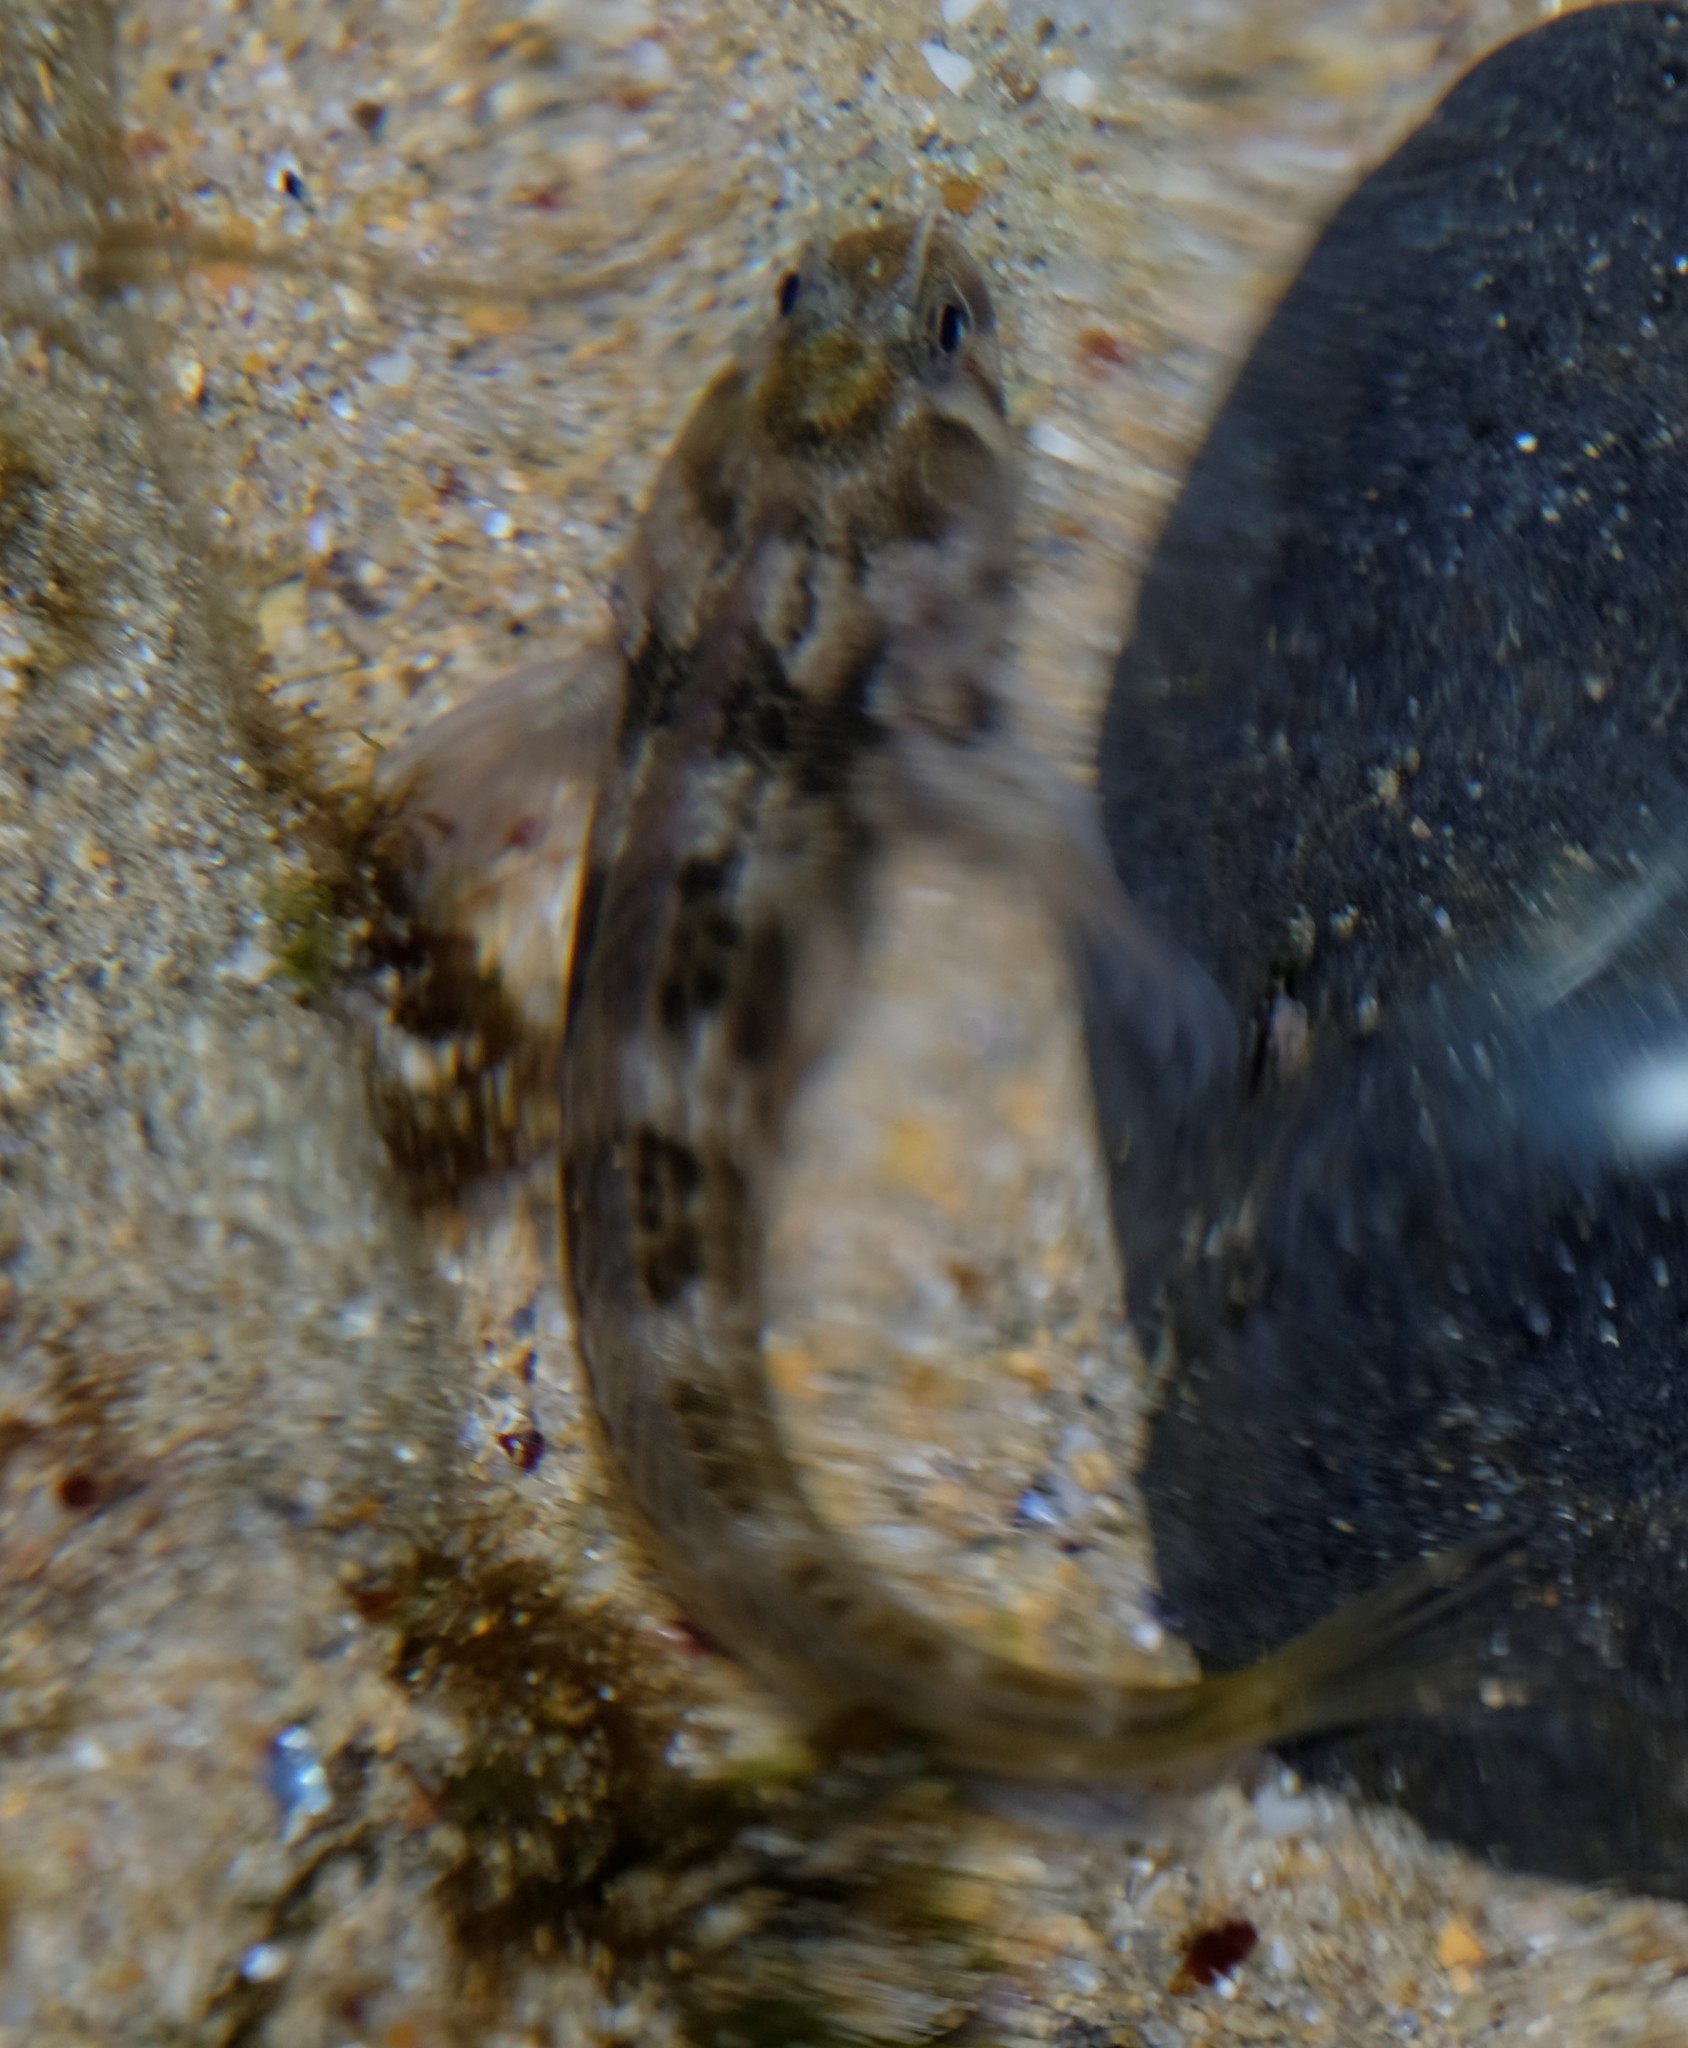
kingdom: Animalia
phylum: Chordata
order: Perciformes
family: Blenniidae
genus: Parablennius
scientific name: Parablennius tasmanianus
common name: Tasmanian blenny
